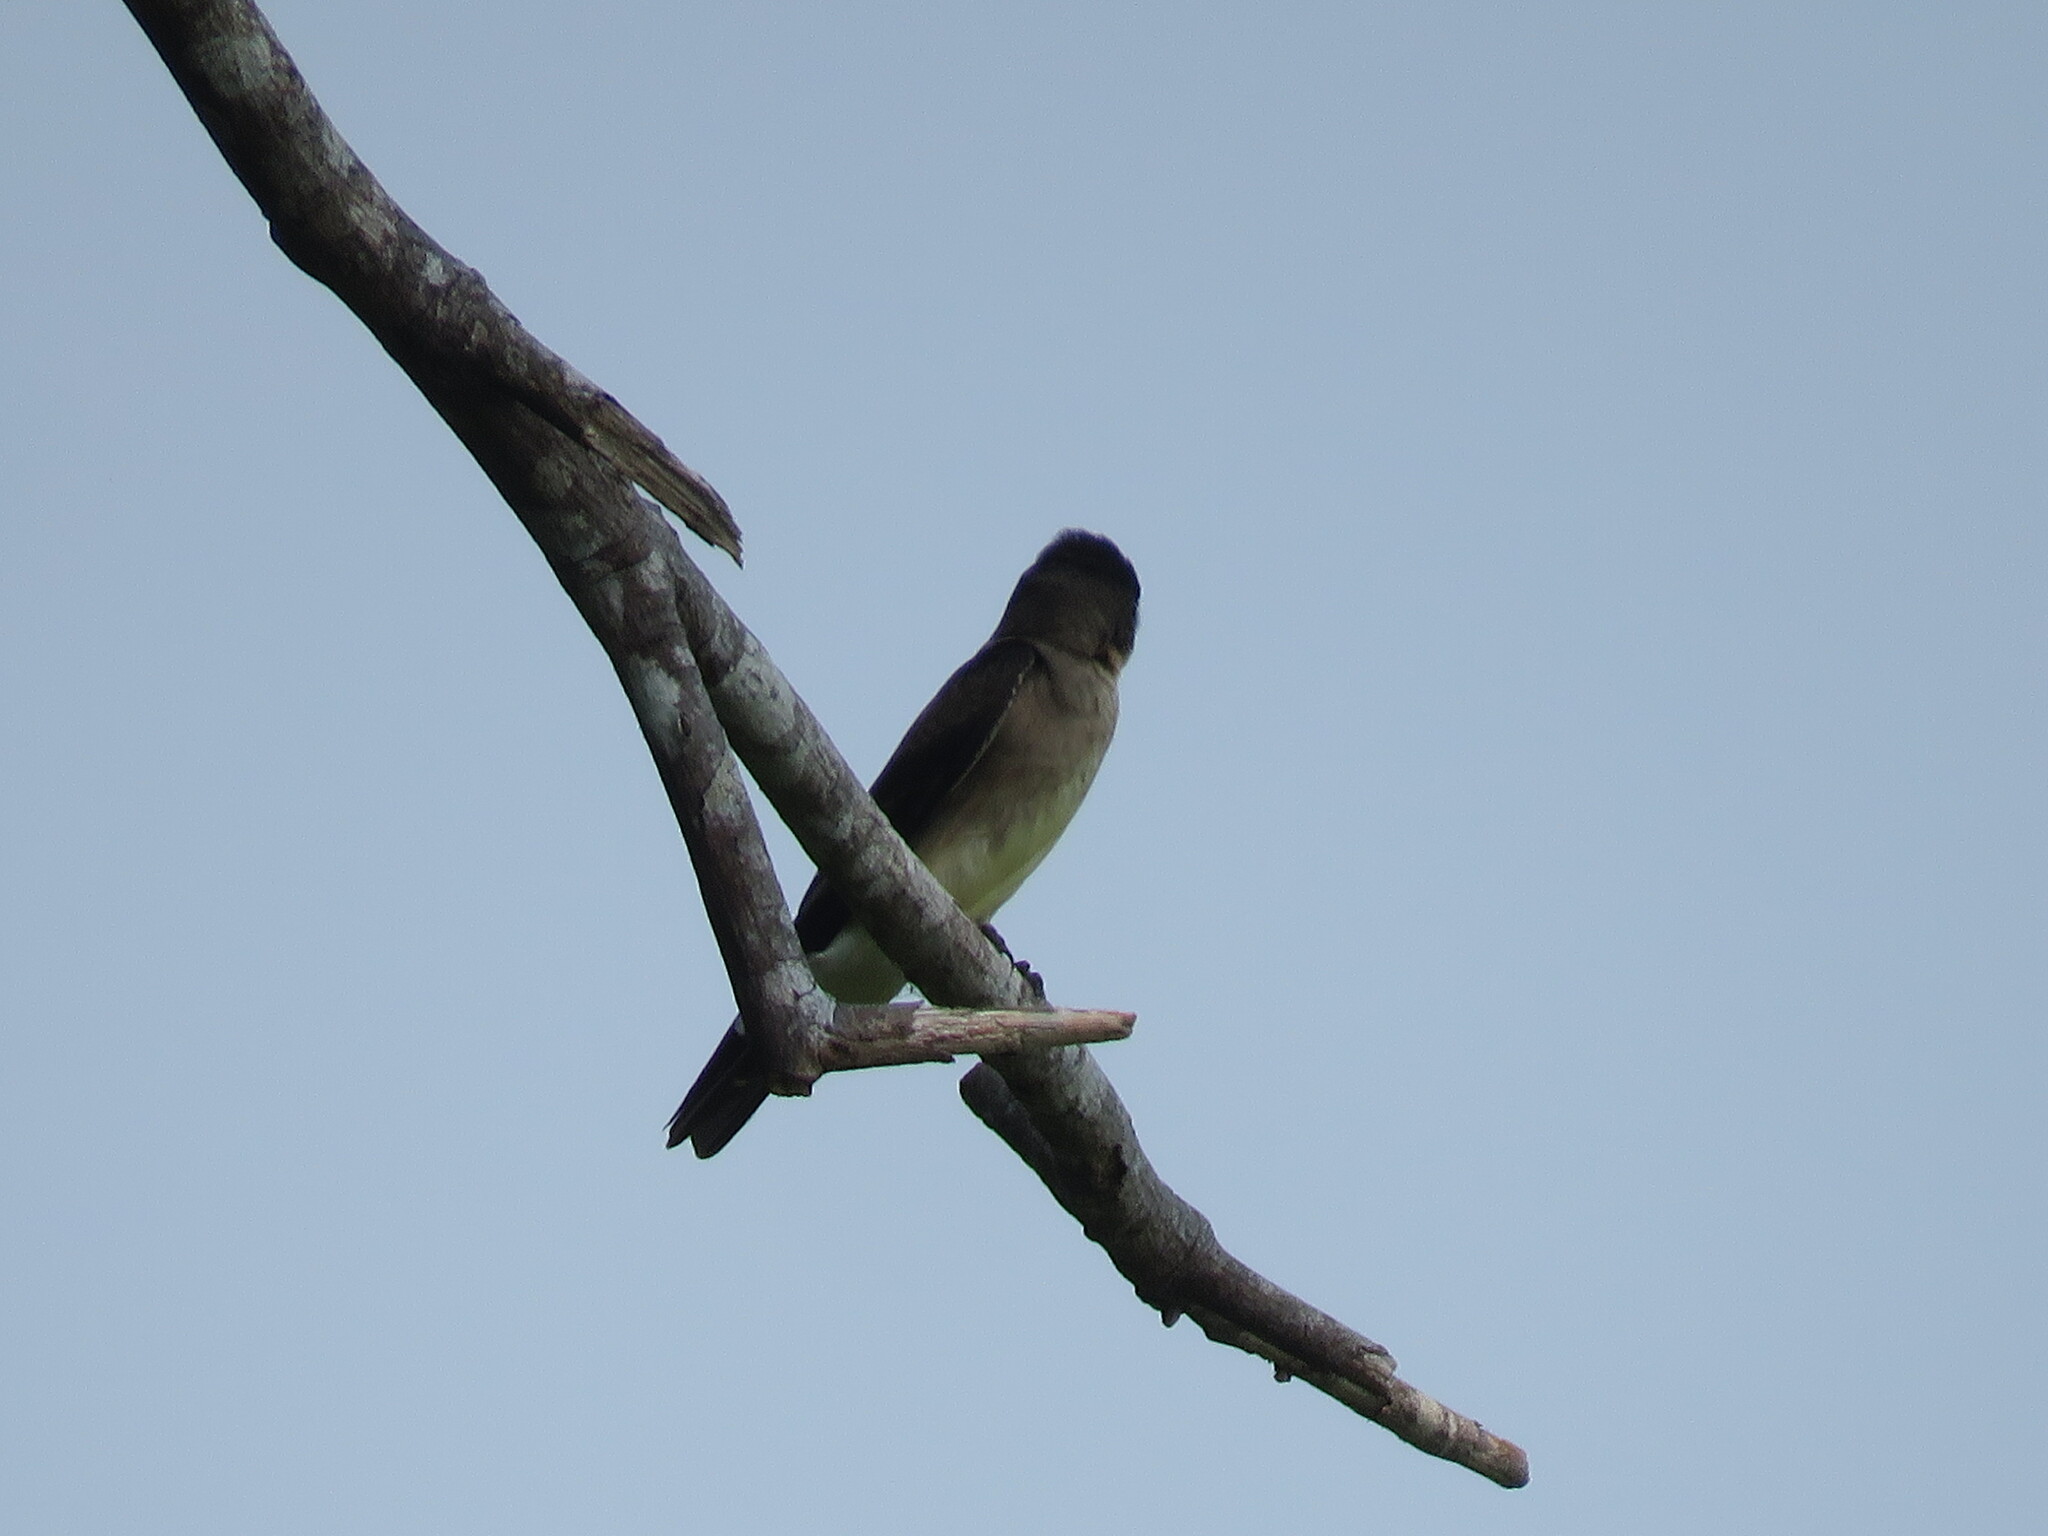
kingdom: Animalia
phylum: Chordata
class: Aves
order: Passeriformes
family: Hirundinidae
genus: Stelgidopteryx
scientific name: Stelgidopteryx ruficollis
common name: Southern rough-winged swallow
